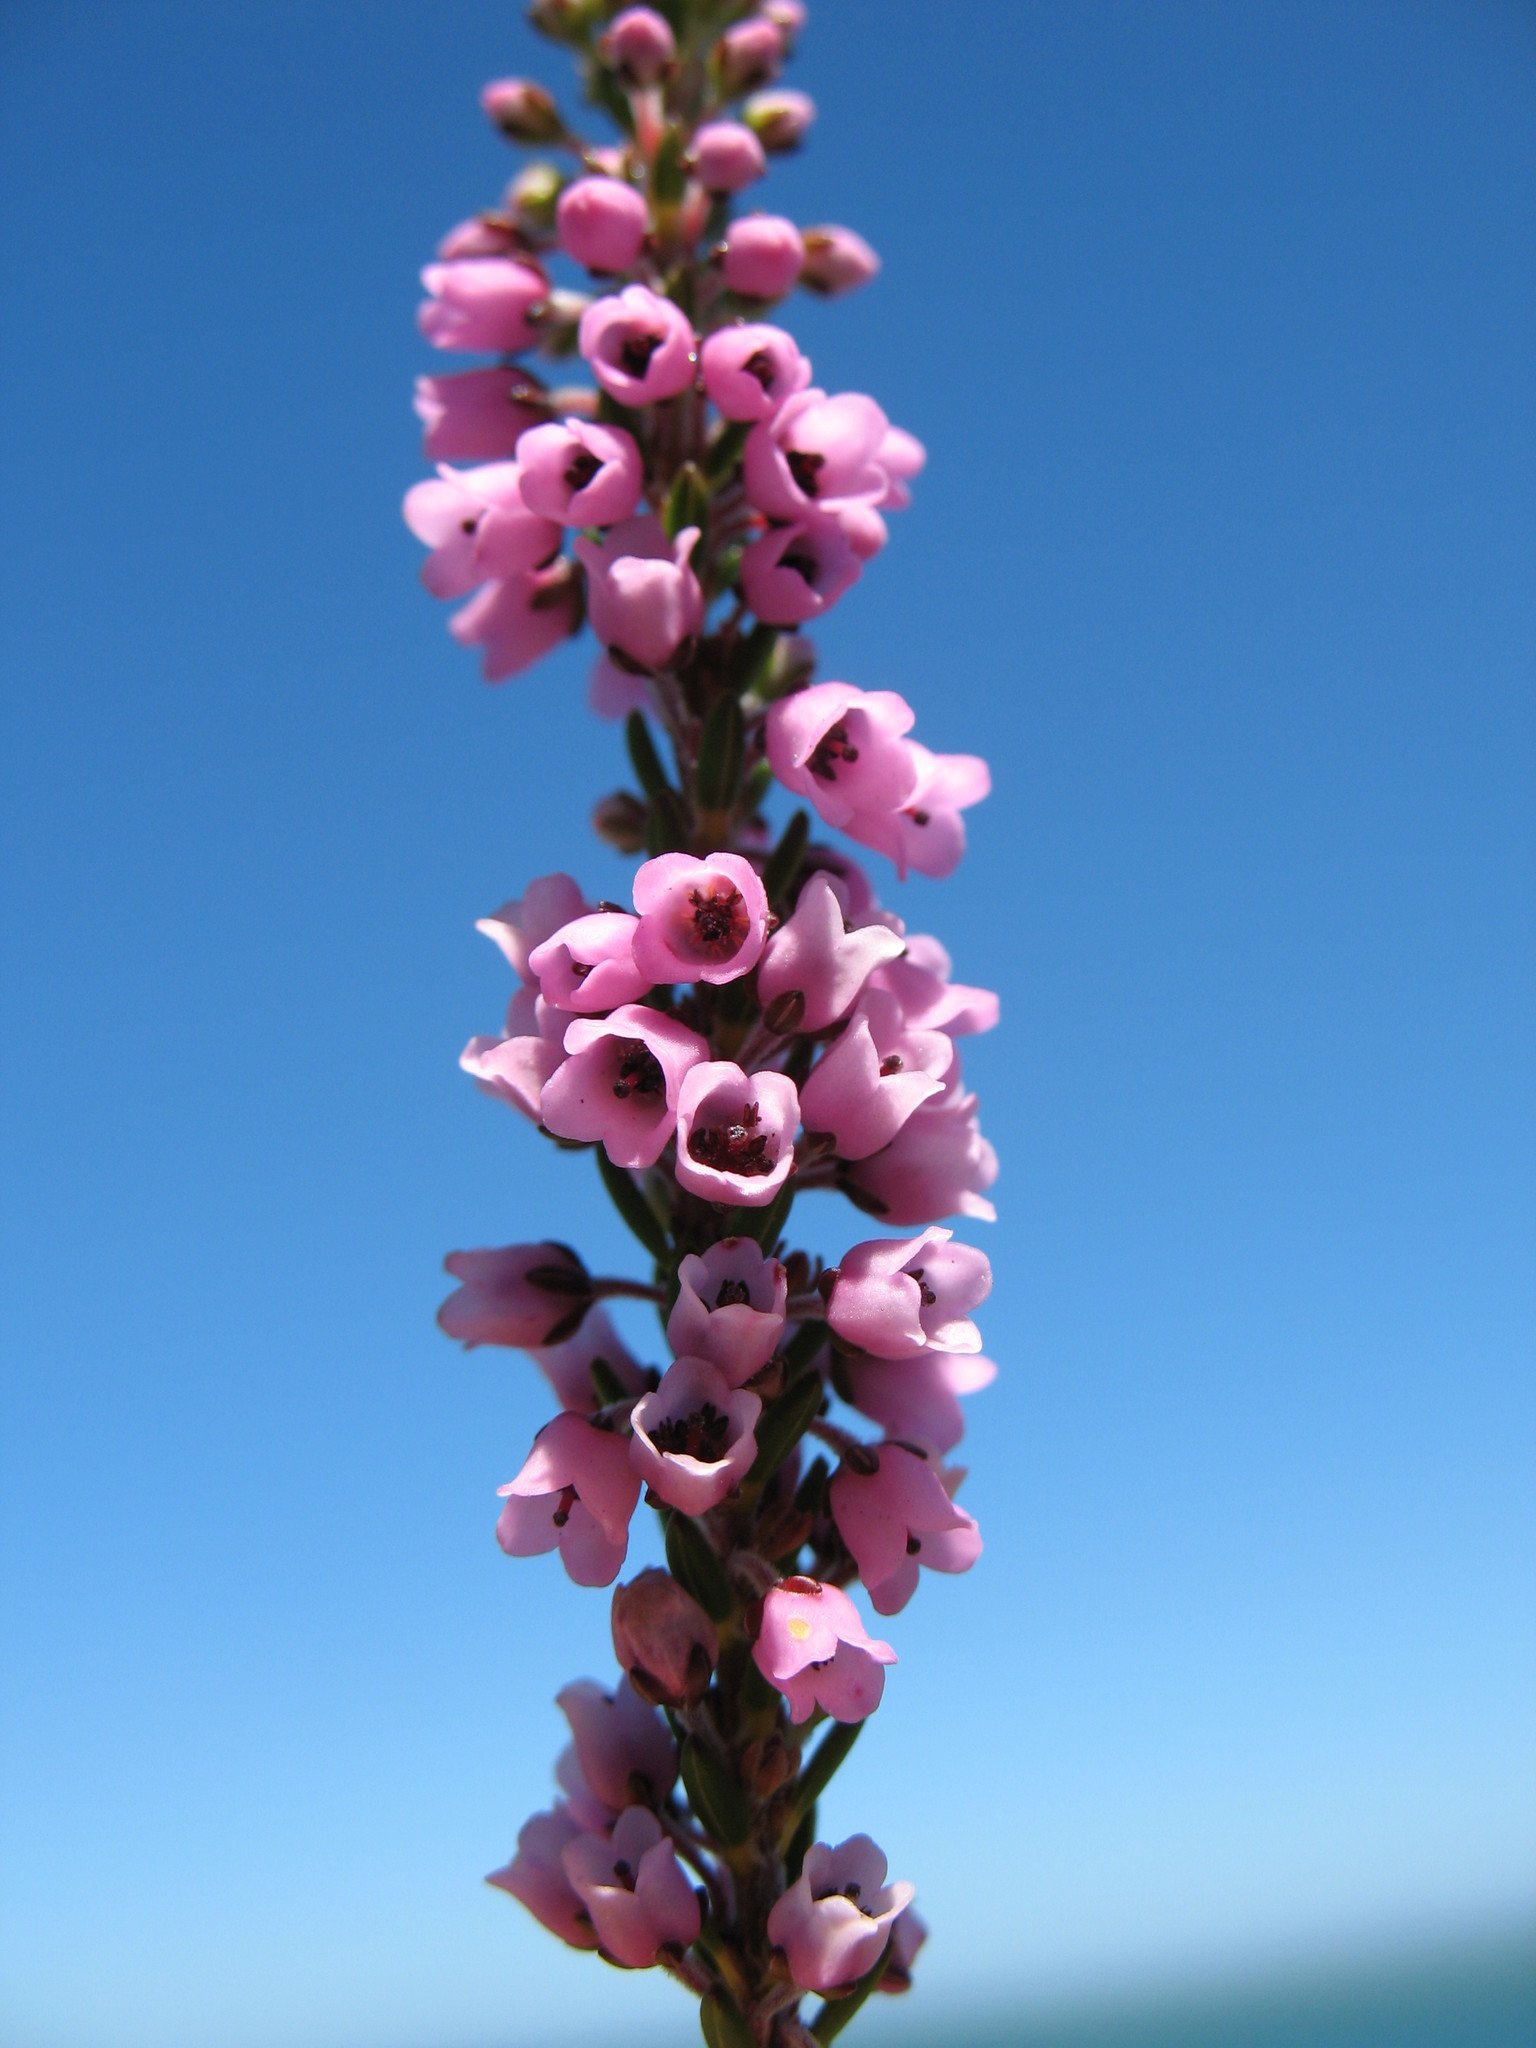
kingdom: Plantae
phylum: Tracheophyta
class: Magnoliopsida
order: Ericales
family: Ericaceae
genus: Erica
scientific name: Erica pulchella
